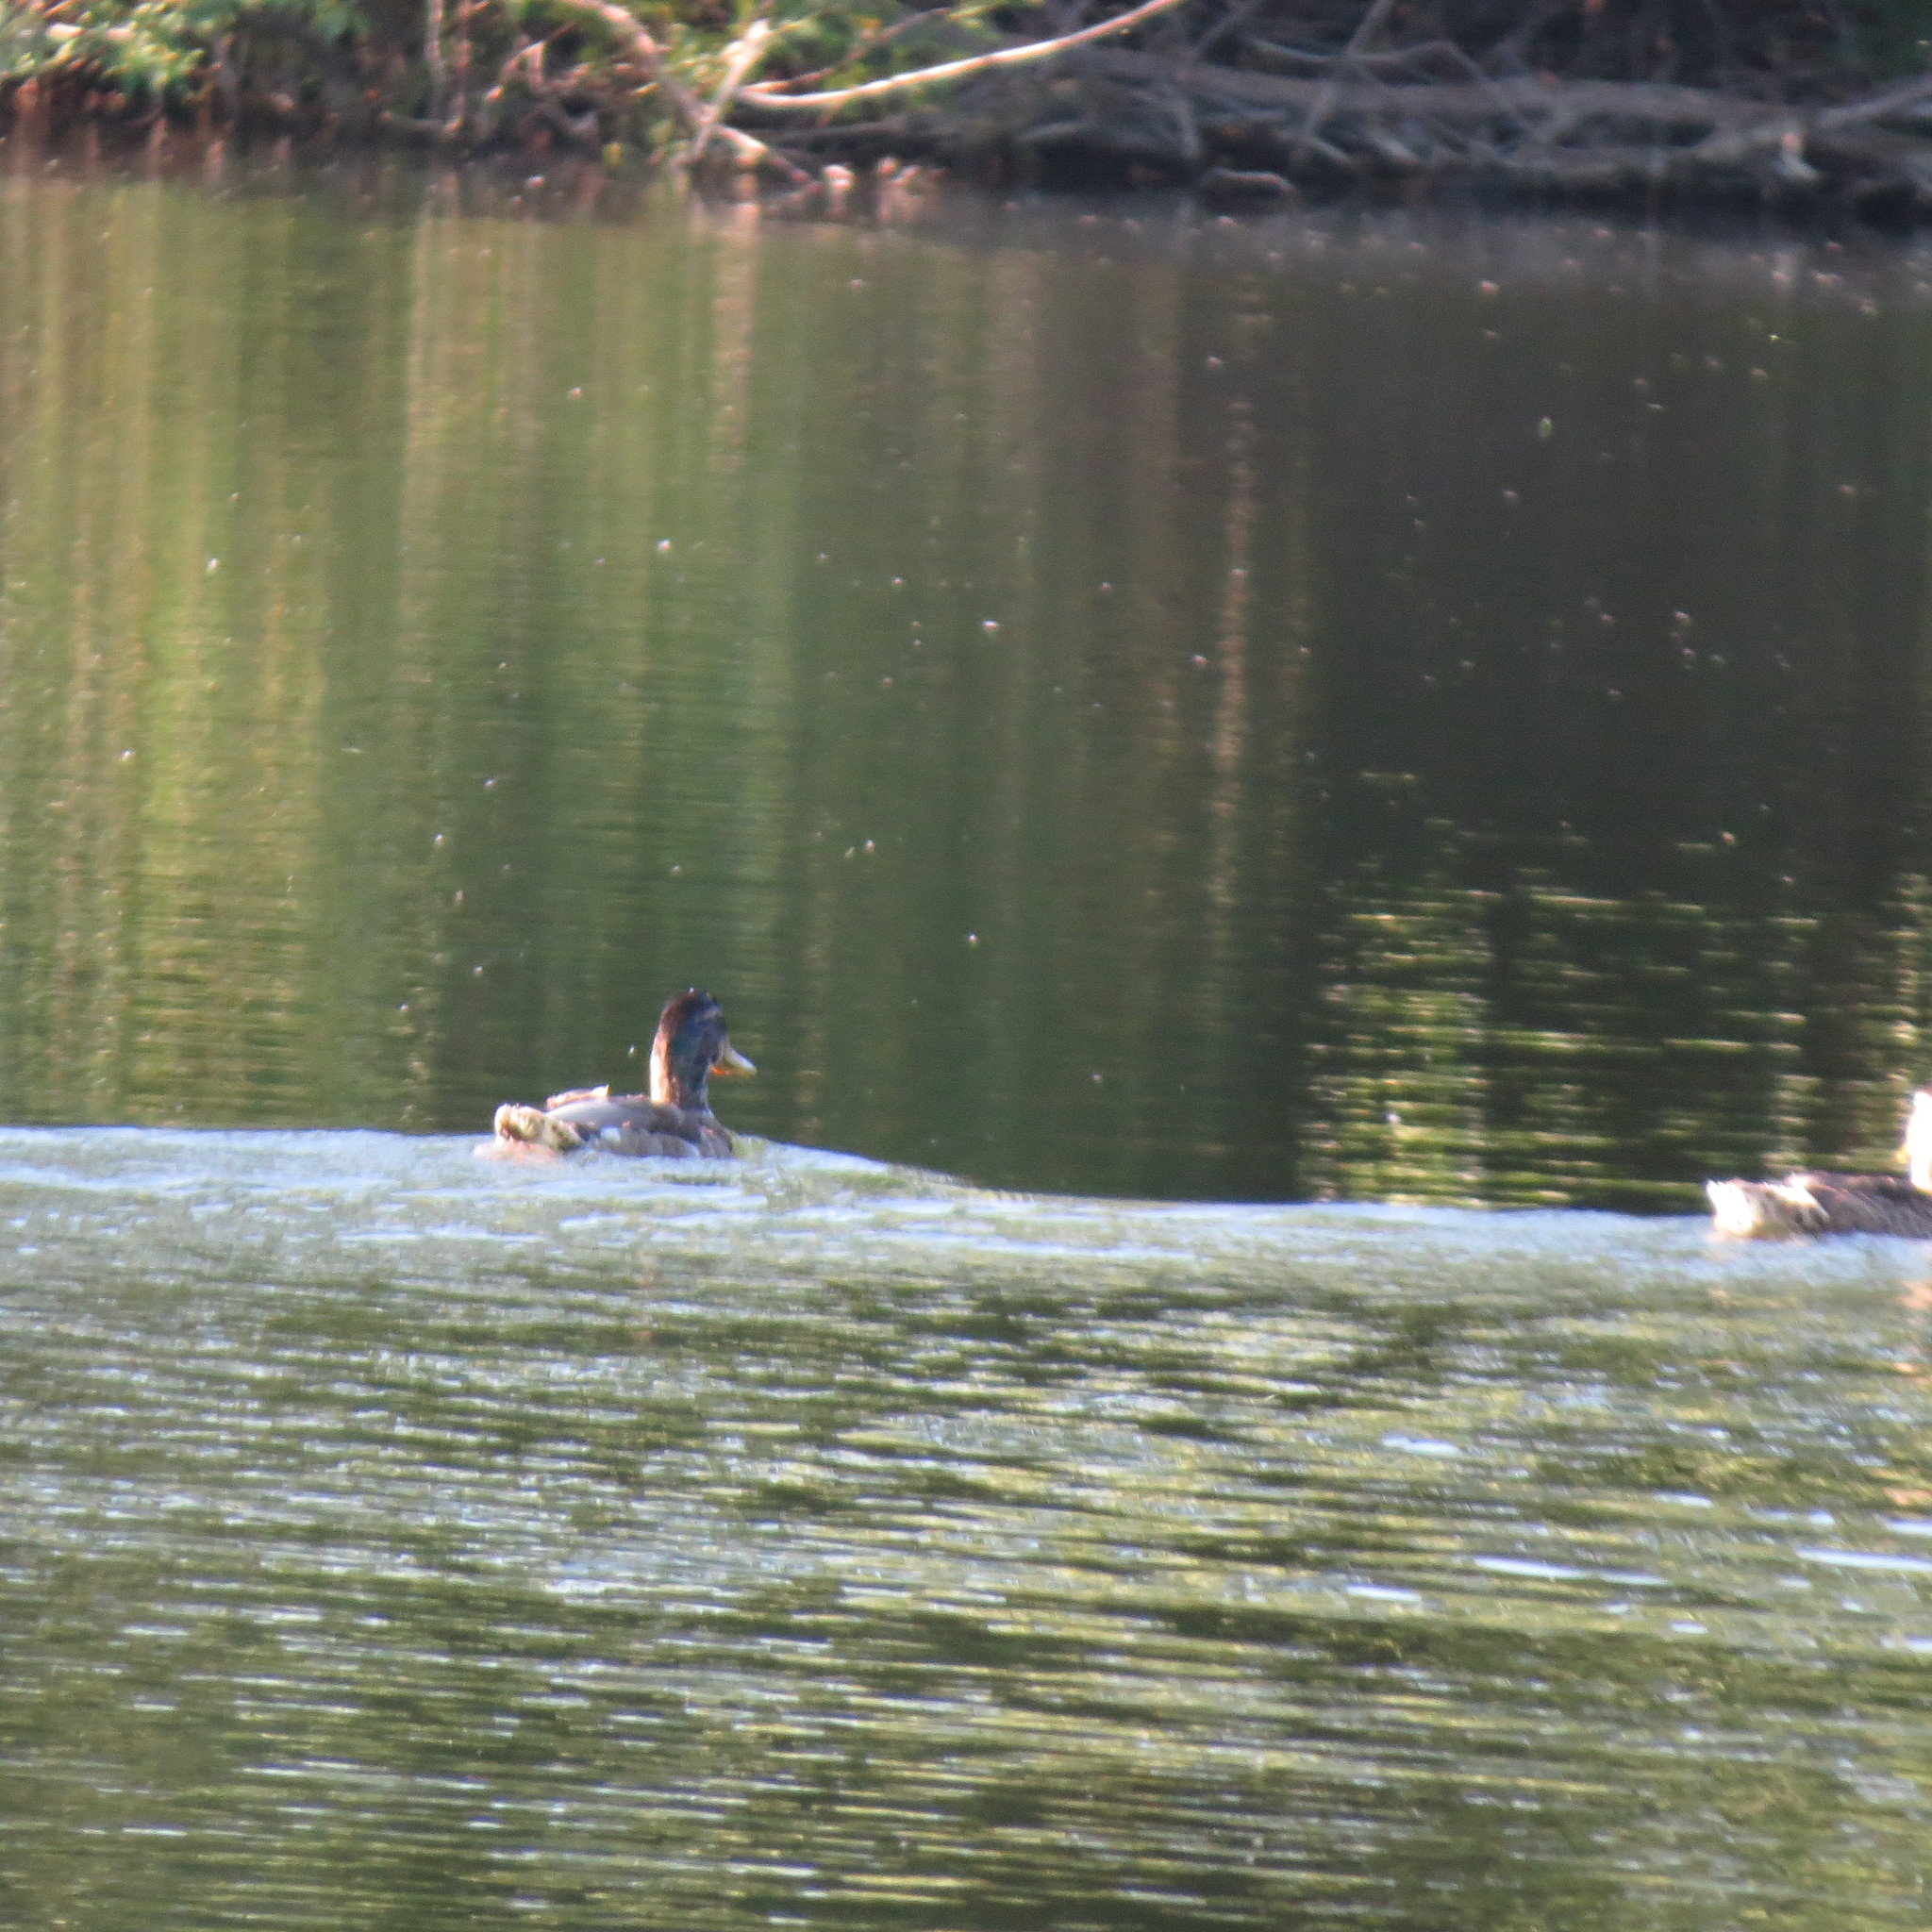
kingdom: Animalia
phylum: Chordata
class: Aves
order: Anseriformes
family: Anatidae
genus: Anas
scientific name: Anas platyrhynchos
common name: Mallard
